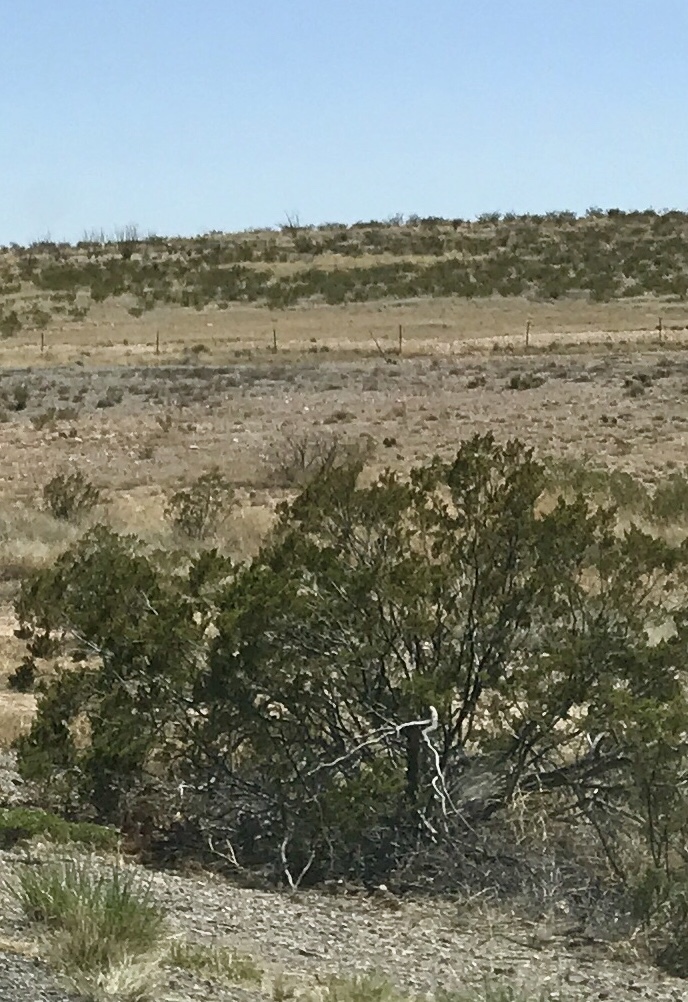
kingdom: Plantae
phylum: Tracheophyta
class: Magnoliopsida
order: Zygophyllales
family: Zygophyllaceae
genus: Larrea
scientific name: Larrea tridentata
